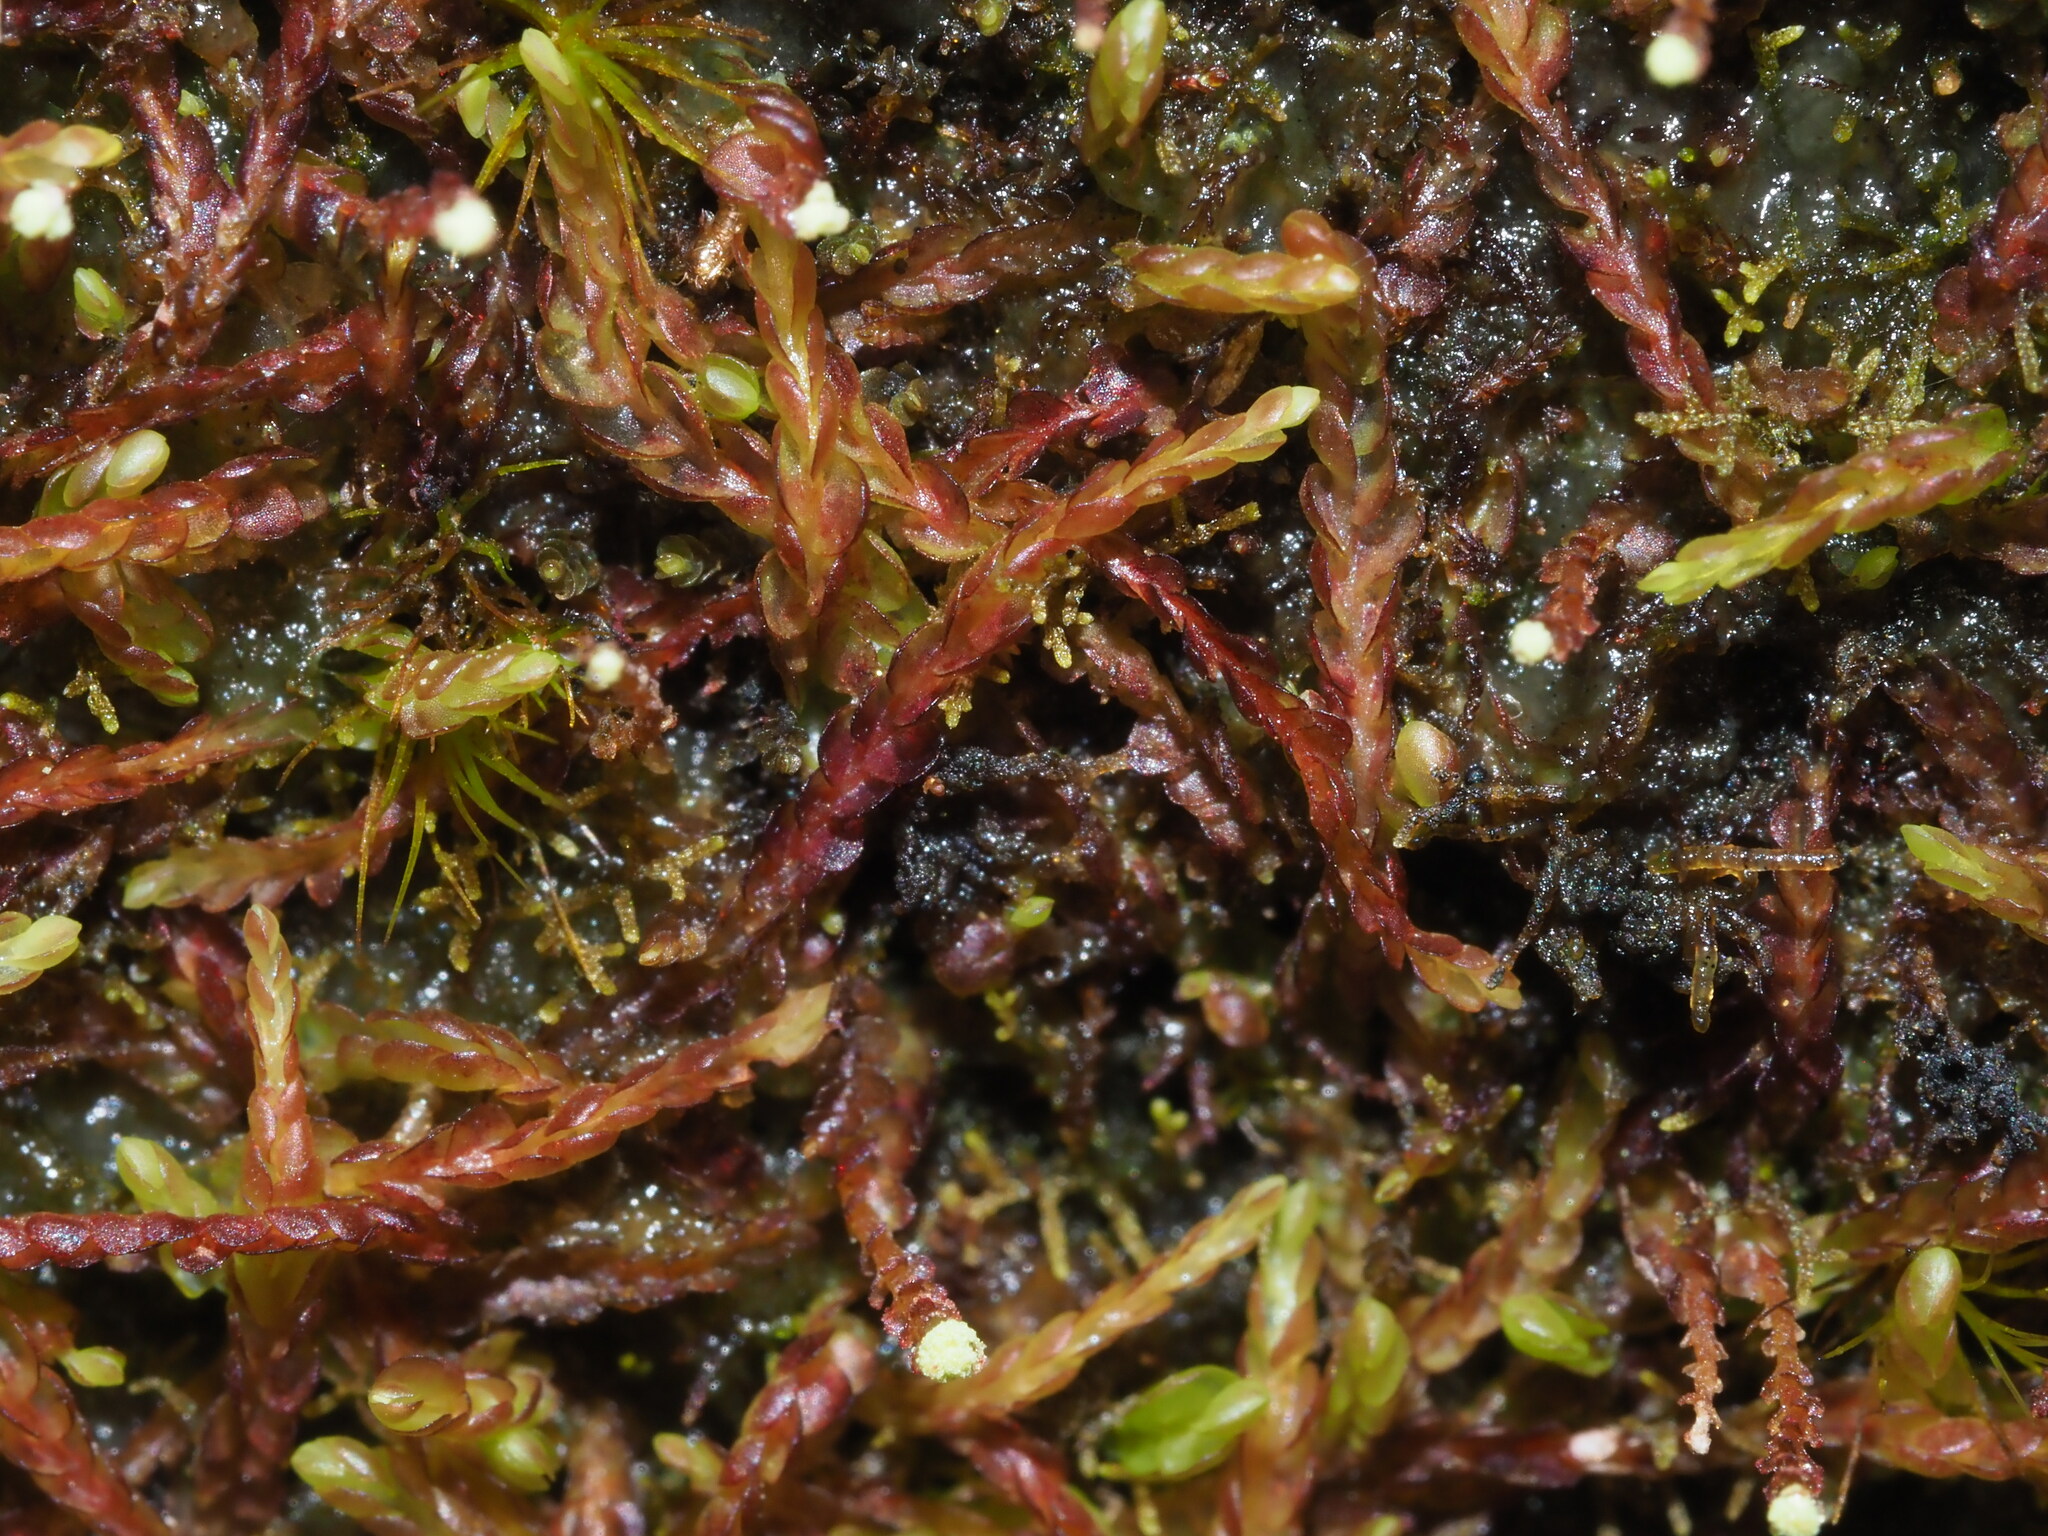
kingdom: Plantae
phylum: Marchantiophyta
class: Jungermanniopsida
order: Jungermanniales
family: Cephaloziaceae
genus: Odontoschisma
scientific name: Odontoschisma denudatum
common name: Matchstick flapwort
